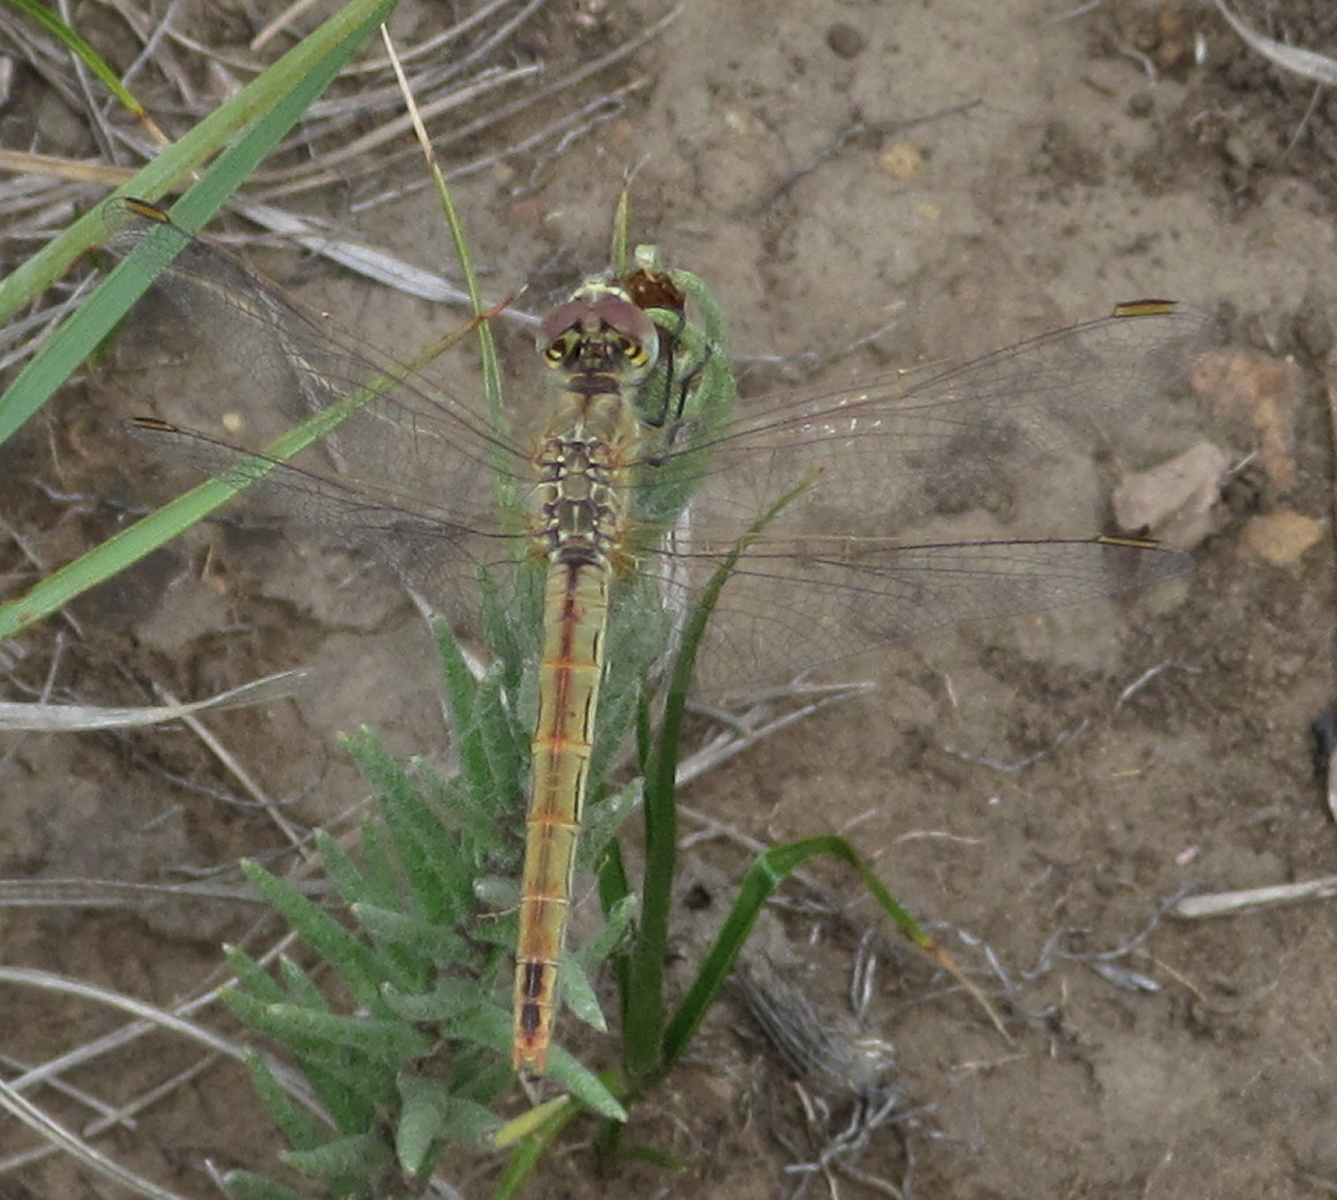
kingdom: Animalia
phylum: Arthropoda
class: Insecta
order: Odonata
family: Libellulidae
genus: Sympetrum
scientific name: Sympetrum fonscolombii
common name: Red-veined darter
